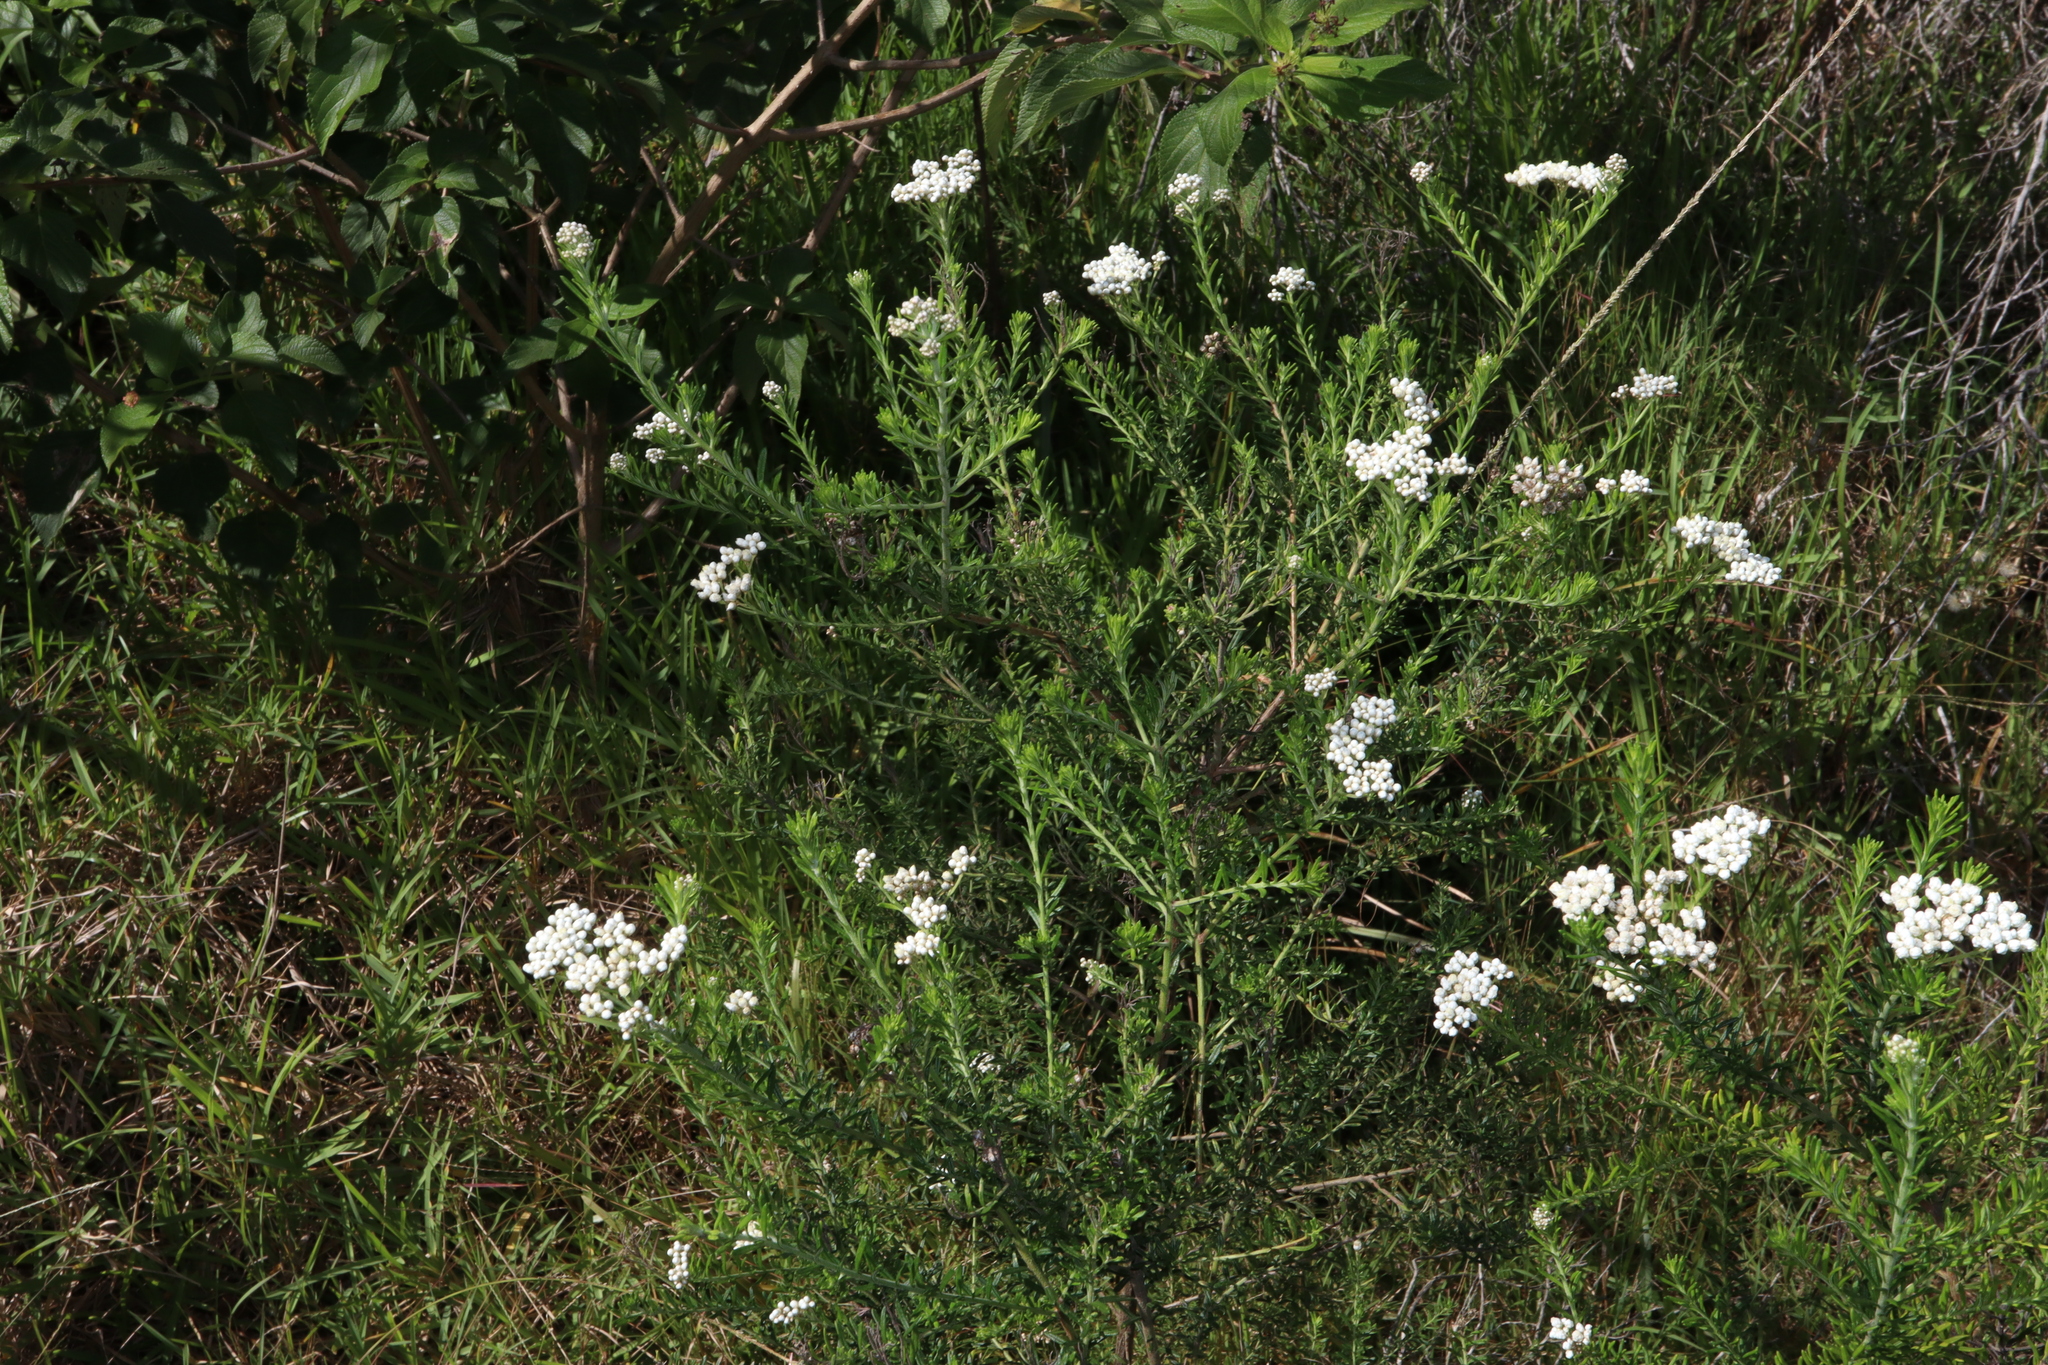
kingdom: Plantae
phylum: Tracheophyta
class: Magnoliopsida
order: Asterales
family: Asteraceae
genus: Ozothamnus
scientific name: Ozothamnus diosmifolius
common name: White-dogwood
